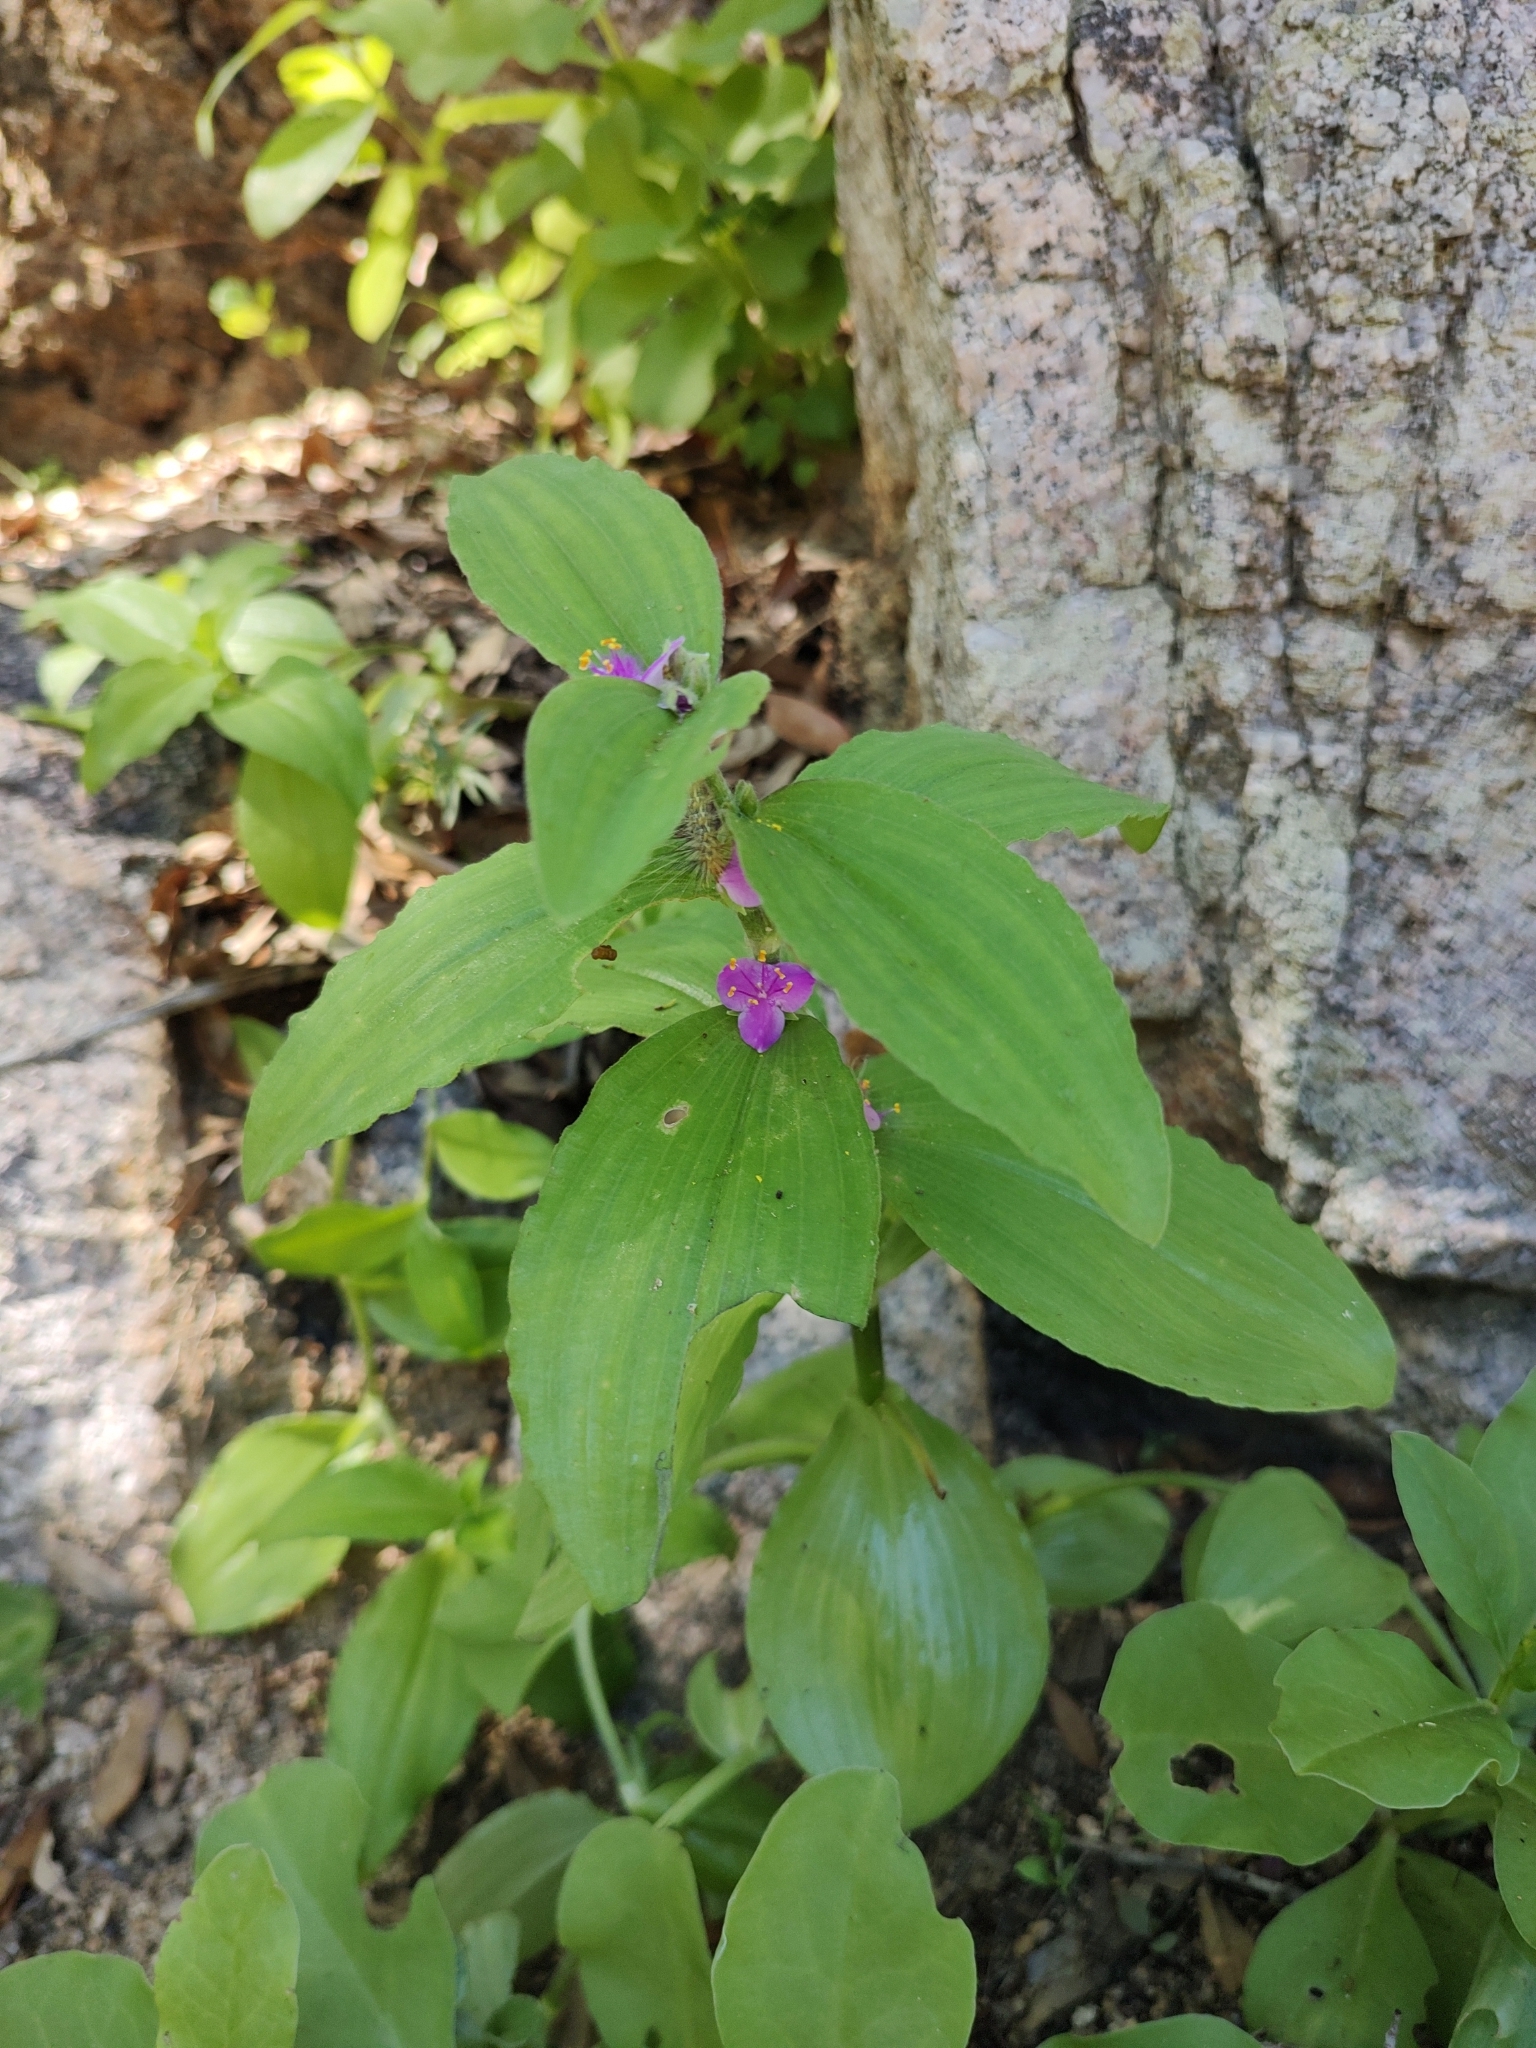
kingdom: Plantae
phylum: Tracheophyta
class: Liliopsida
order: Commelinales
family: Commelinaceae
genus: Tradescantia
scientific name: Tradescantia peninsularis
